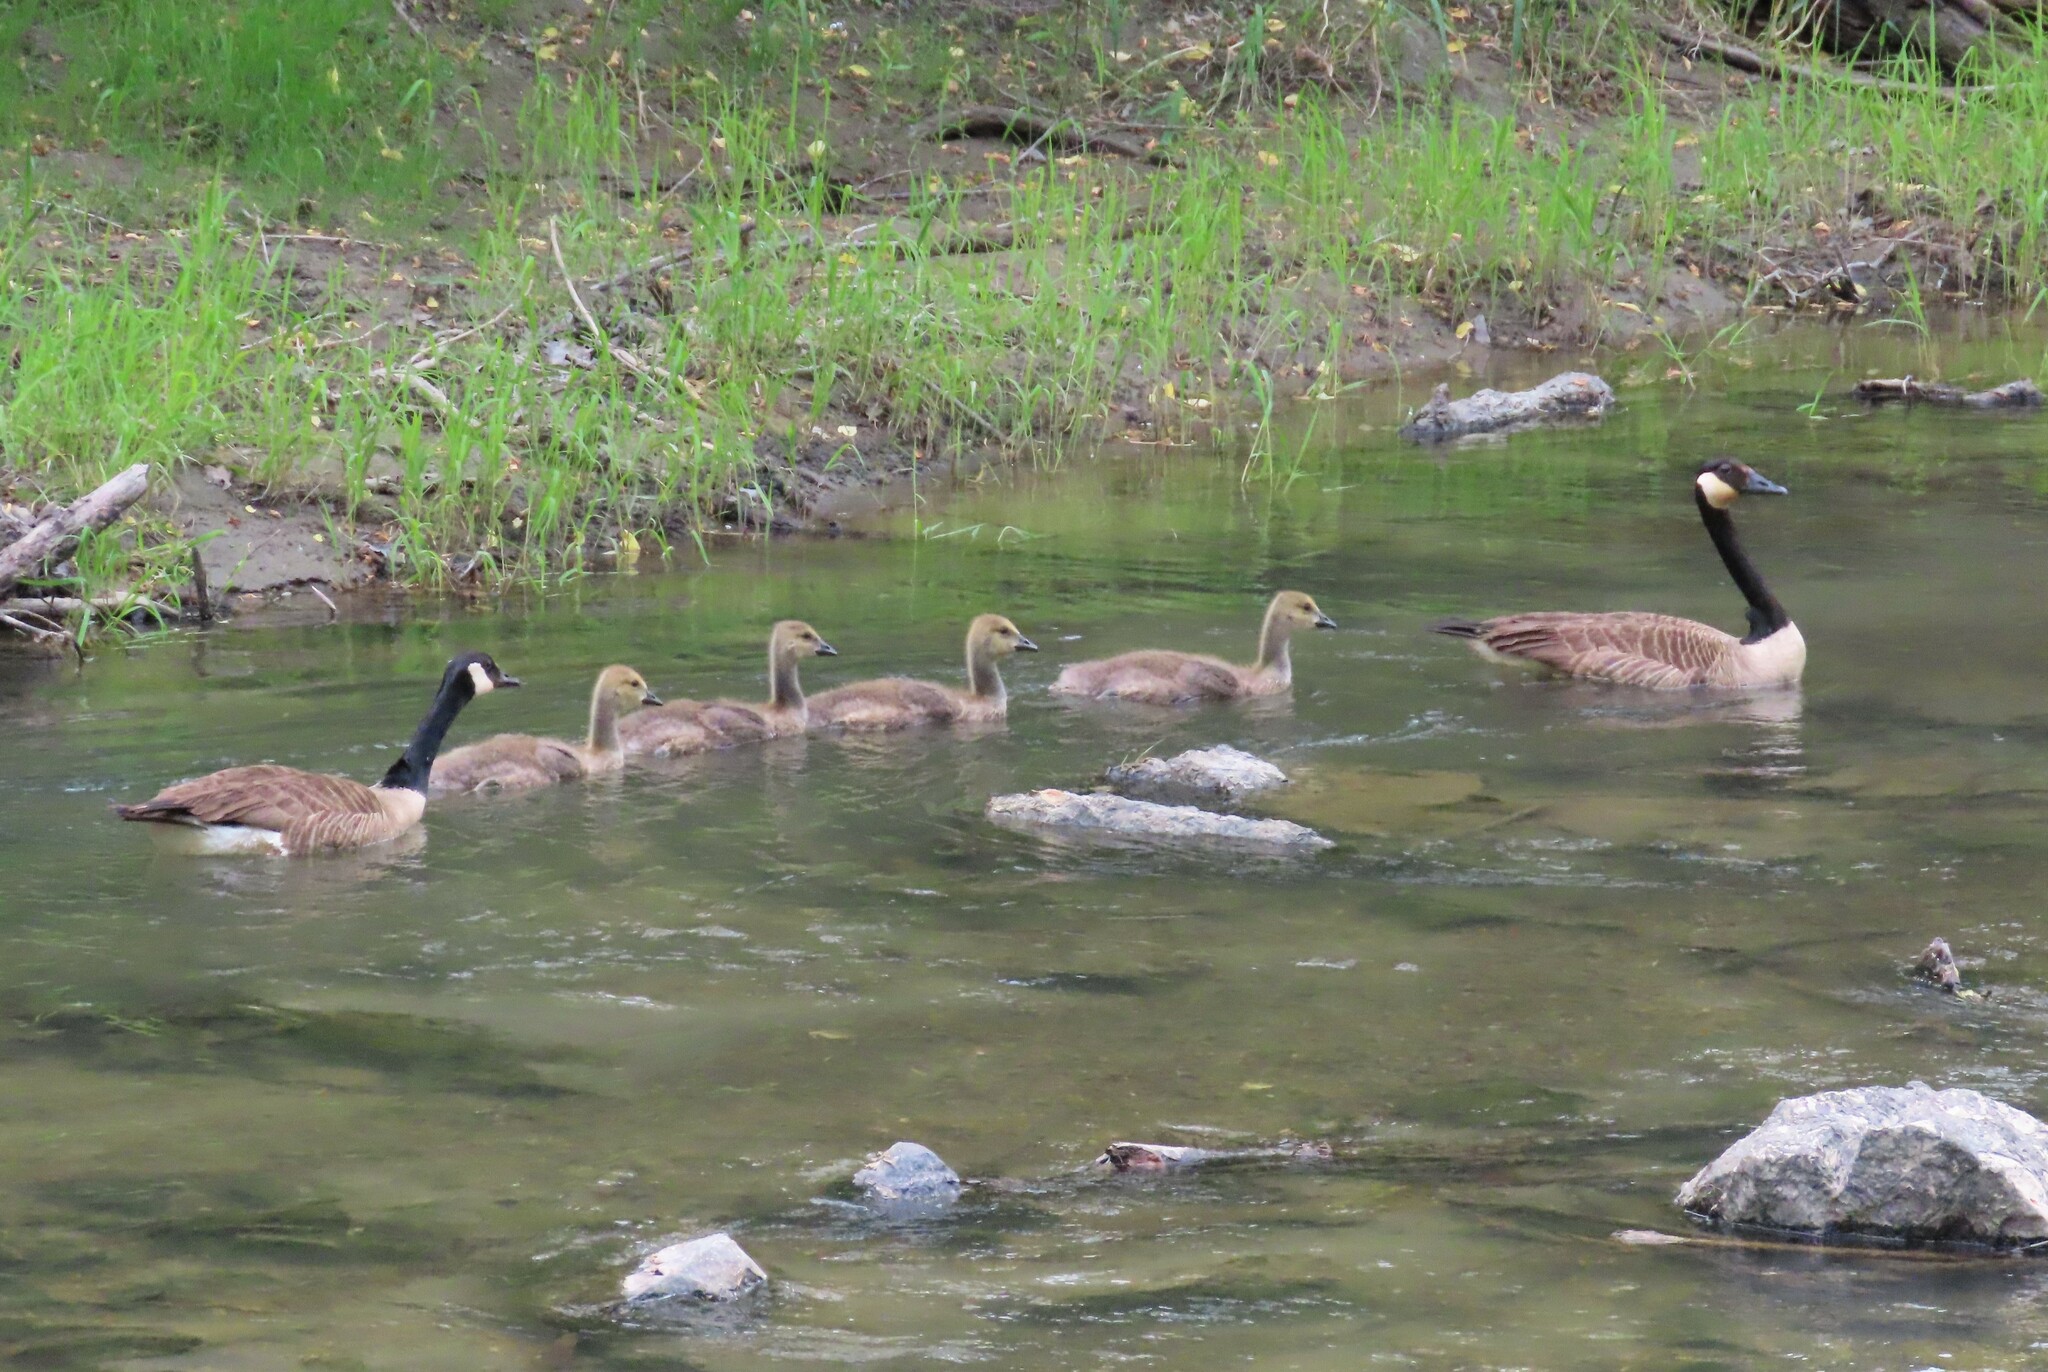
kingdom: Animalia
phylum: Chordata
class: Aves
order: Anseriformes
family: Anatidae
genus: Branta
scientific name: Branta canadensis
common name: Canada goose
